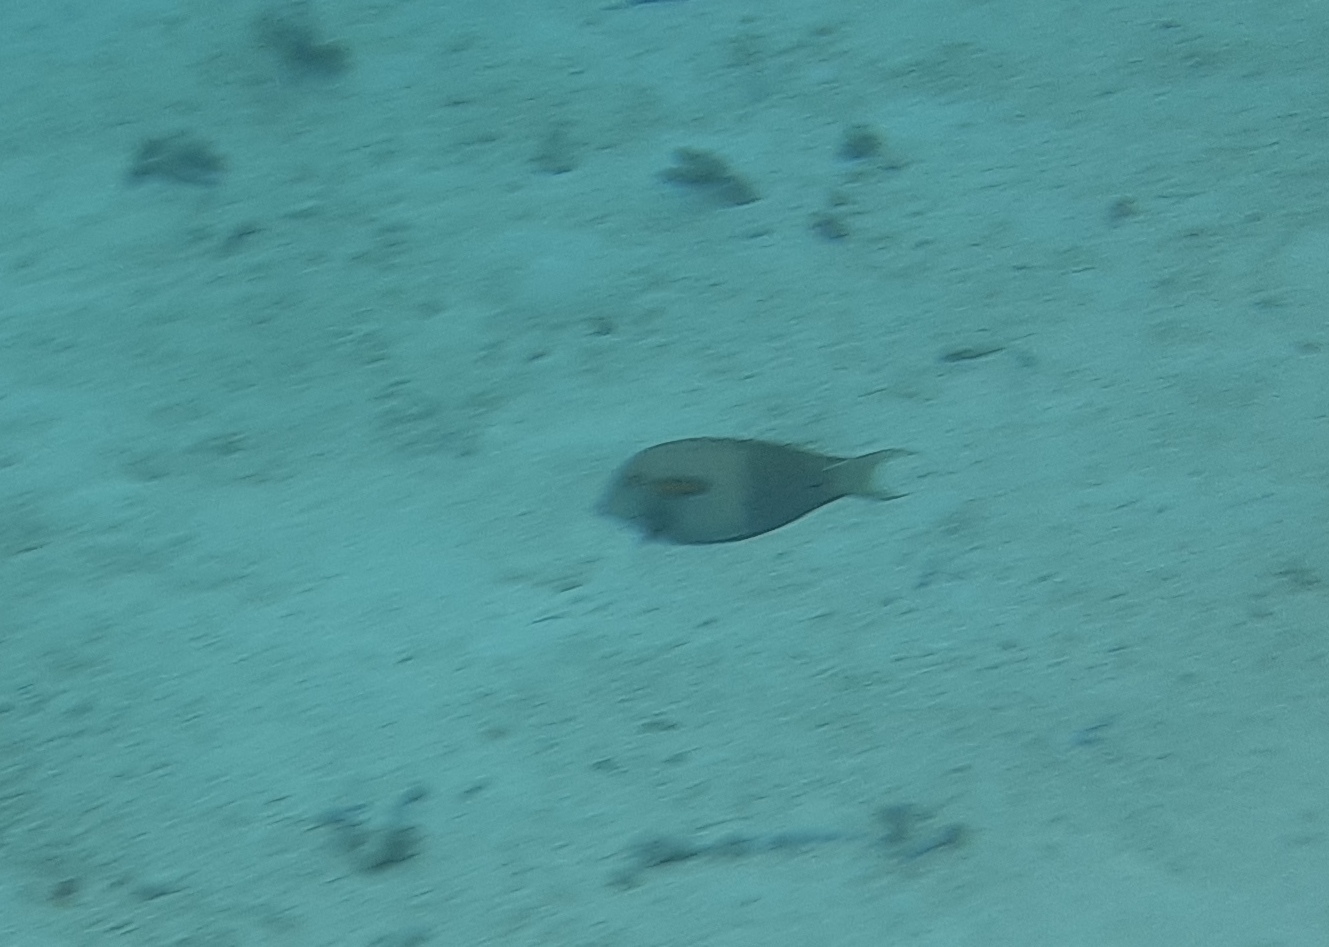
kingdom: Animalia
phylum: Chordata
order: Perciformes
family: Acanthuridae
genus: Acanthurus
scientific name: Acanthurus olivaceus
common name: Gendarme fish
